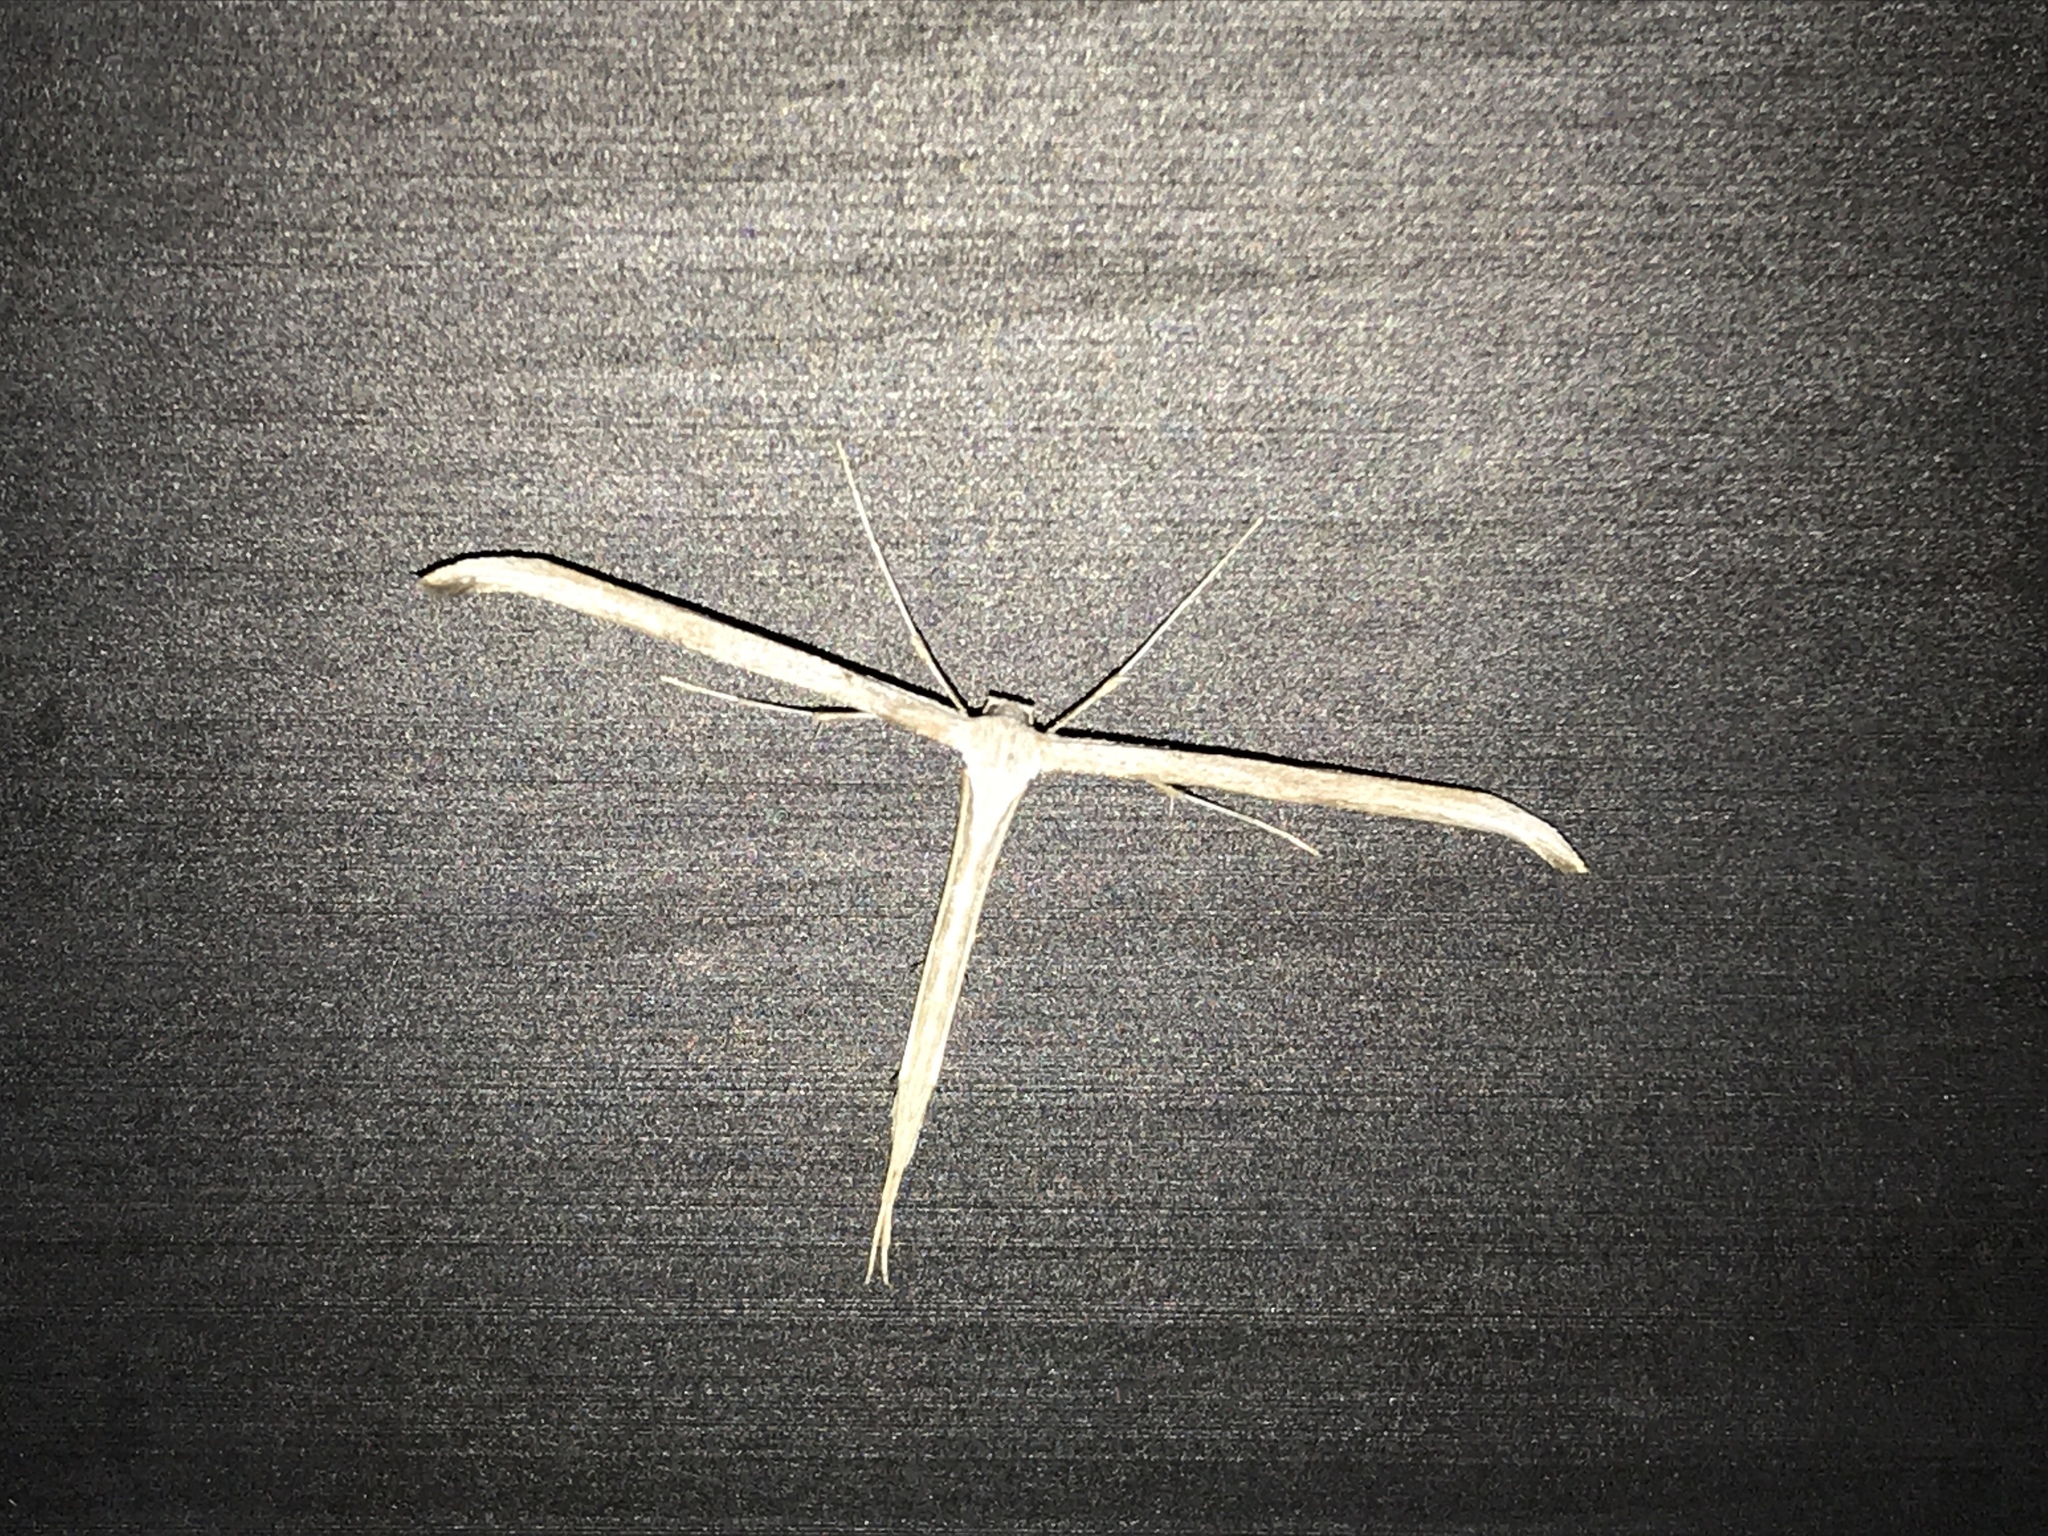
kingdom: Animalia
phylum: Arthropoda
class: Insecta
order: Lepidoptera
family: Pterophoridae
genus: Emmelina
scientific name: Emmelina monodactyla
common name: Common plume
